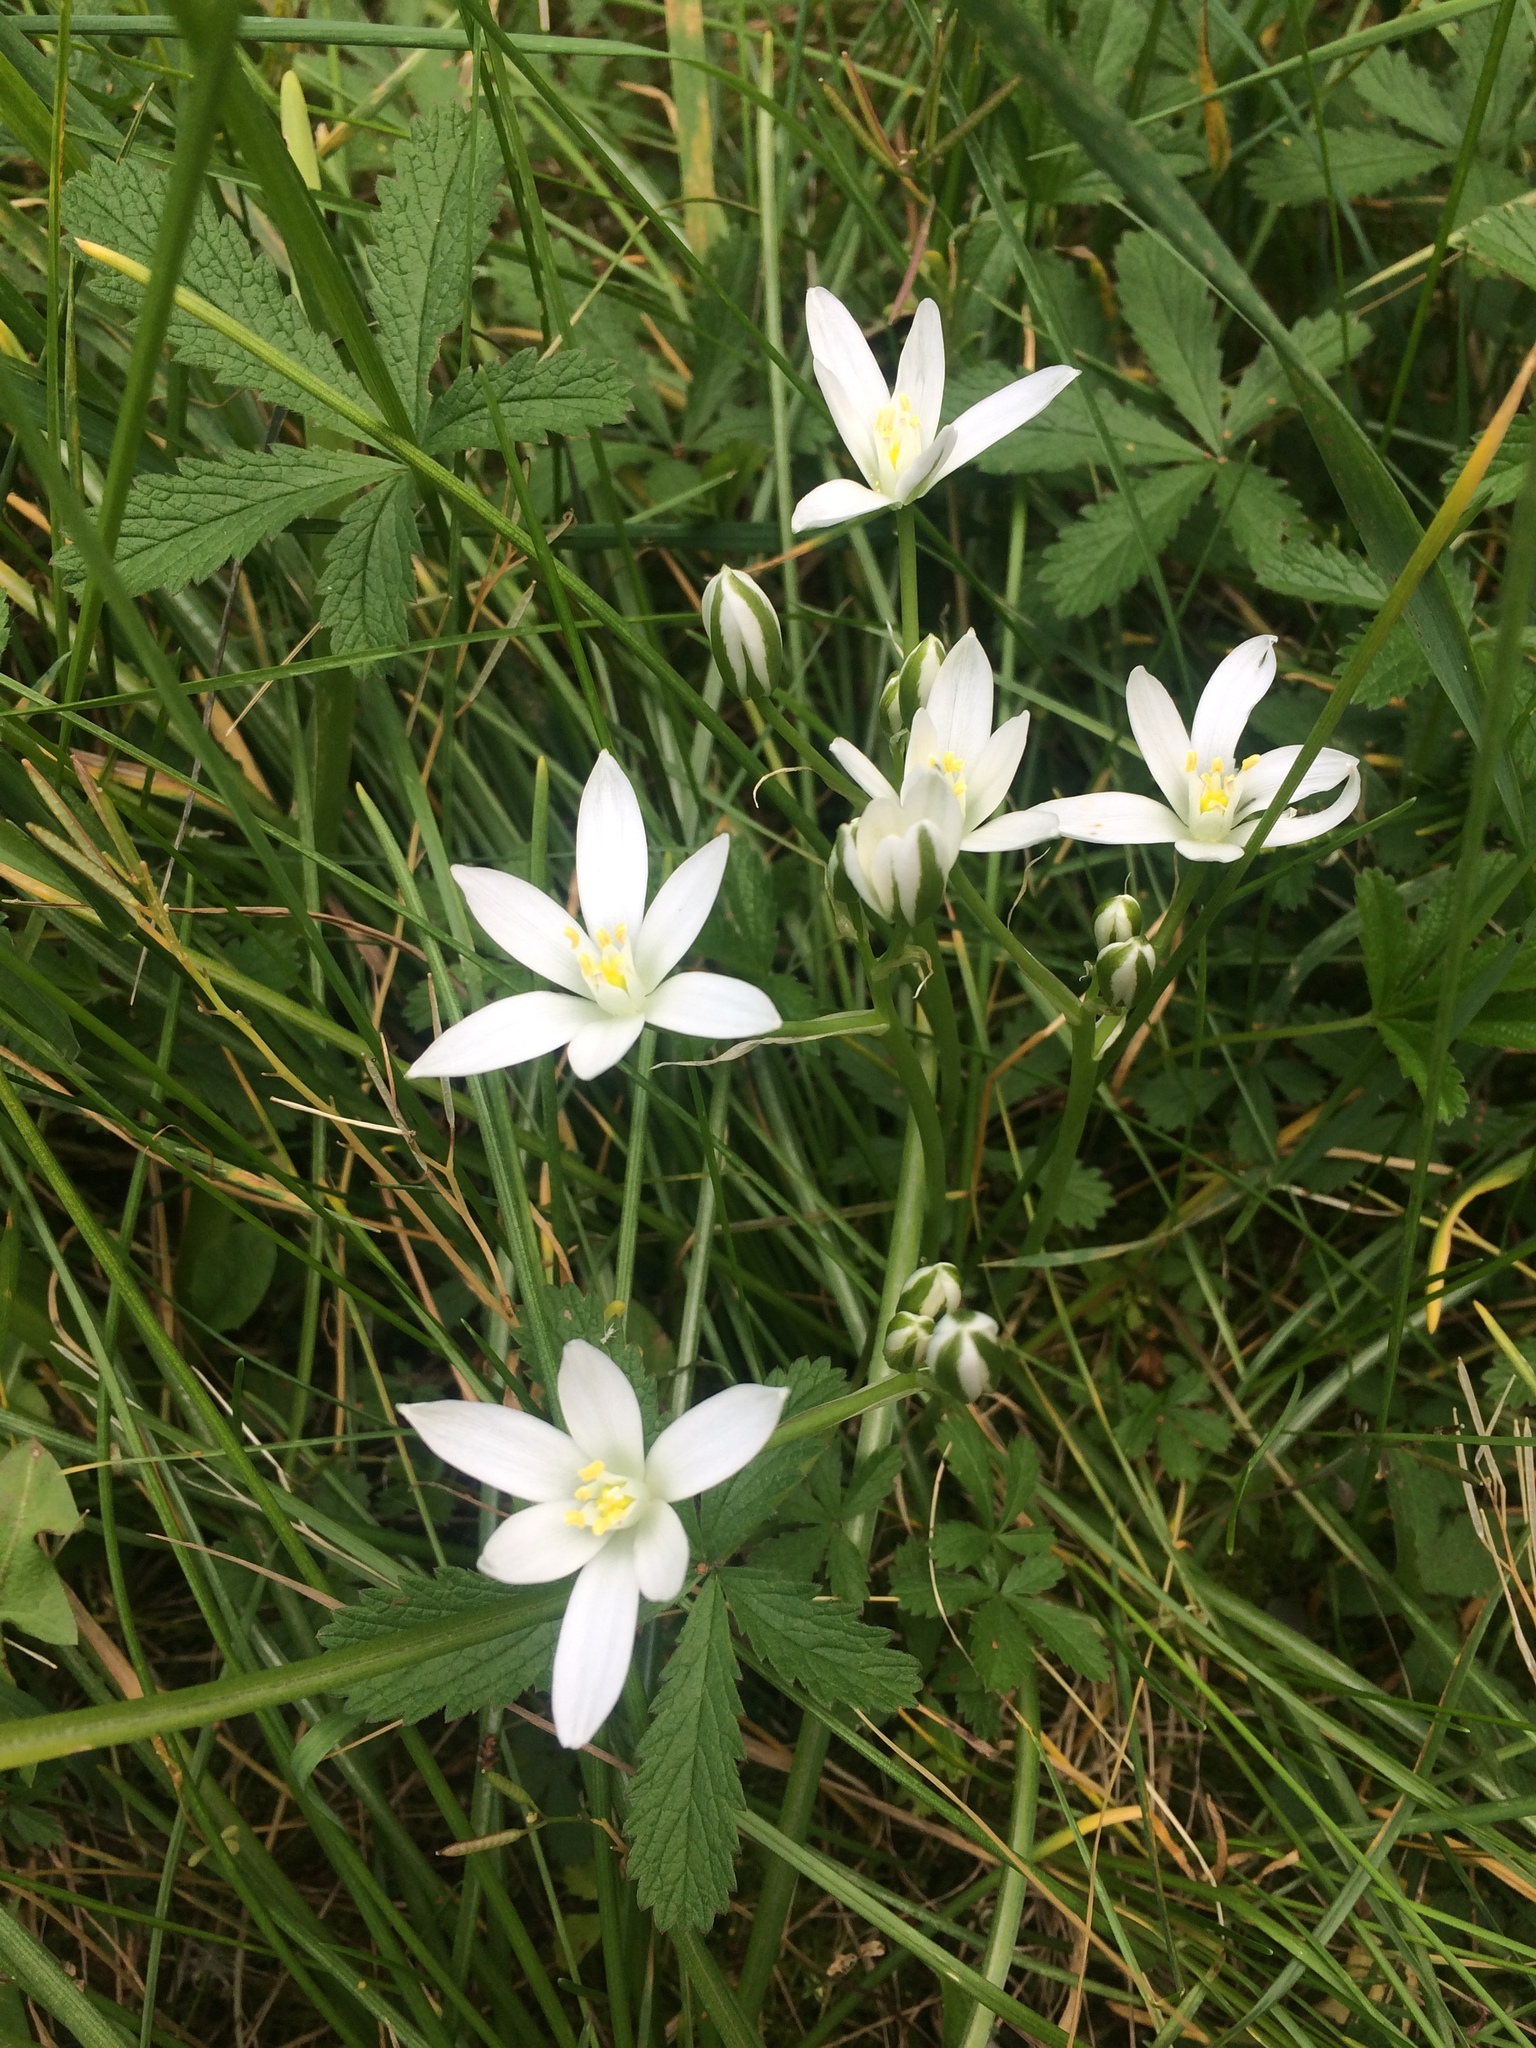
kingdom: Plantae
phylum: Tracheophyta
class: Liliopsida
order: Asparagales
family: Asparagaceae
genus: Ornithogalum
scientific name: Ornithogalum umbellatum
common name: Garden star-of-bethlehem
